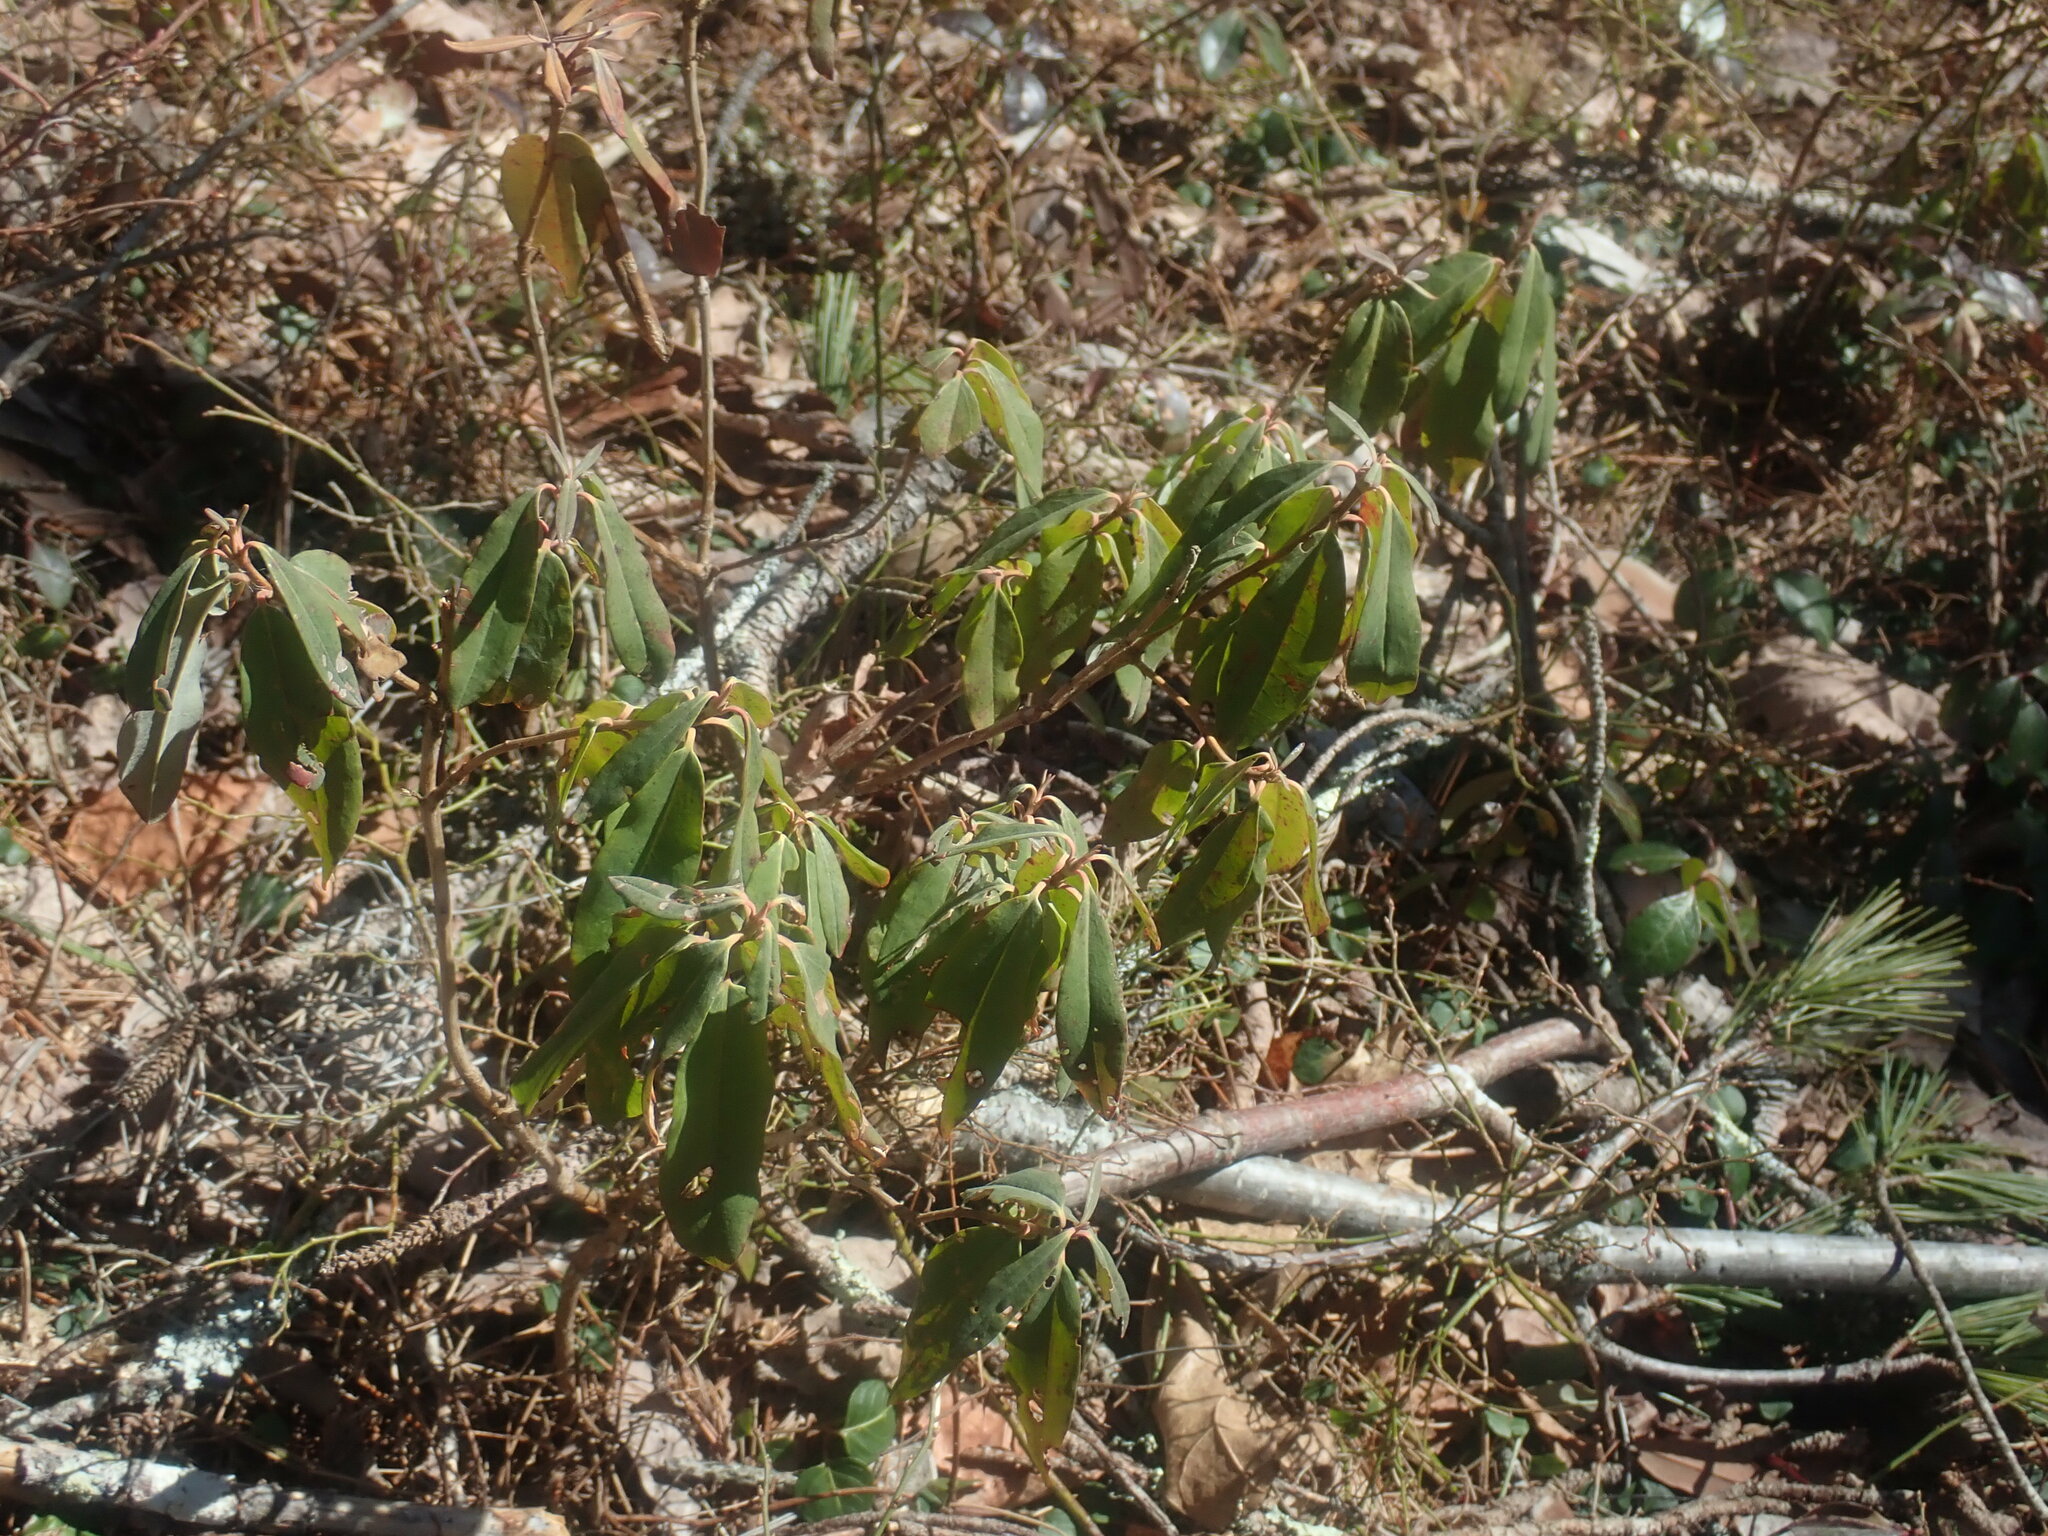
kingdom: Plantae
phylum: Tracheophyta
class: Magnoliopsida
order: Ericales
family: Ericaceae
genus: Kalmia
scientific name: Kalmia angustifolia
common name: Sheep-laurel
